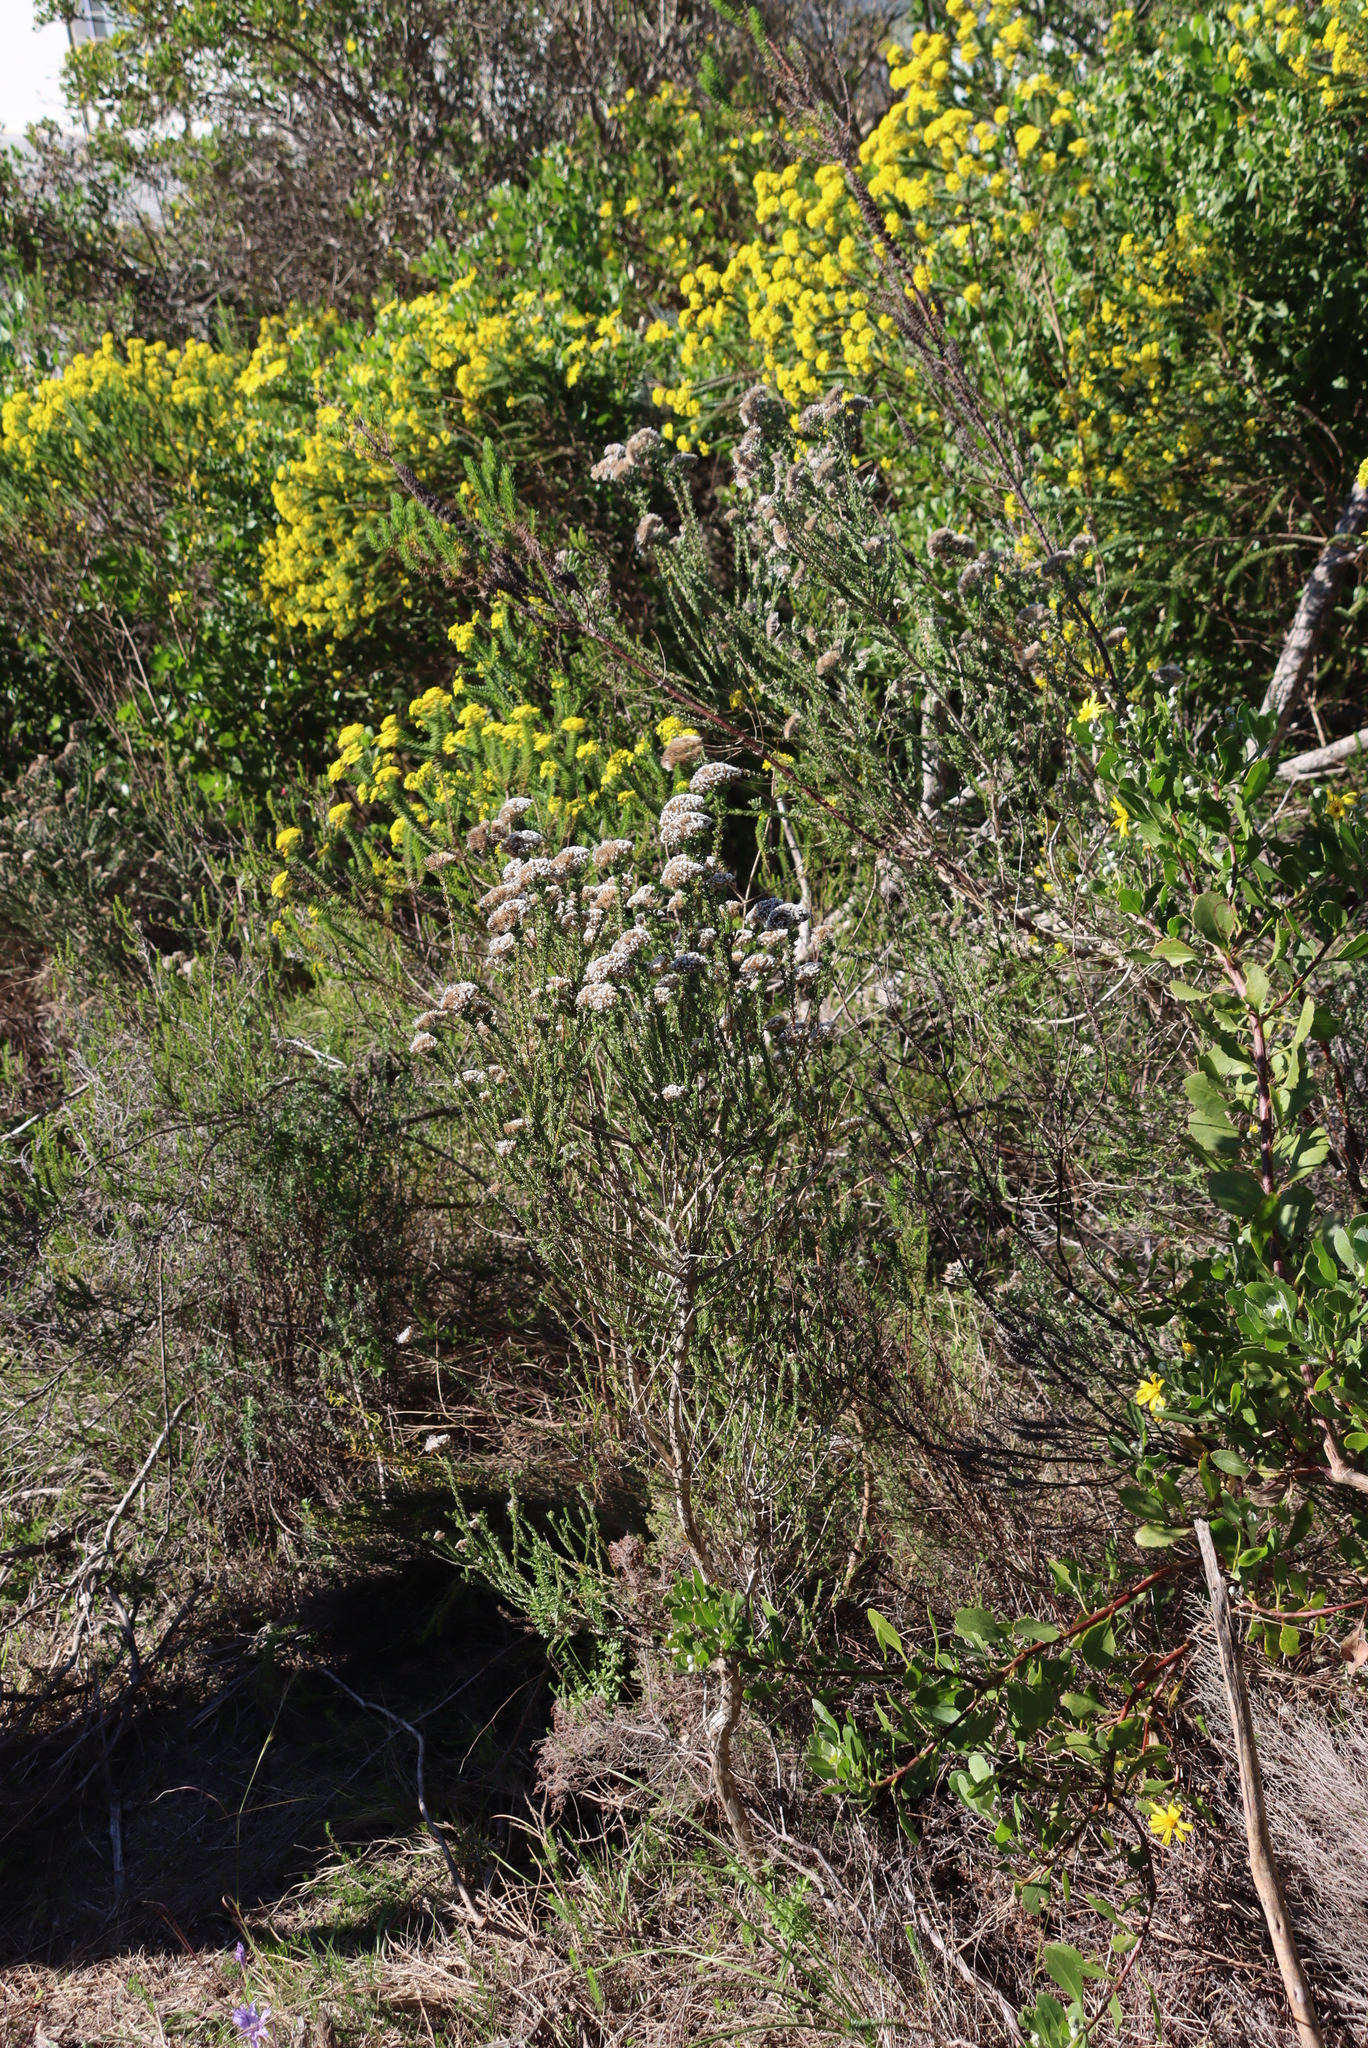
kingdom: Plantae
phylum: Tracheophyta
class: Magnoliopsida
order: Asterales
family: Asteraceae
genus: Metalasia
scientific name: Metalasia pungens
